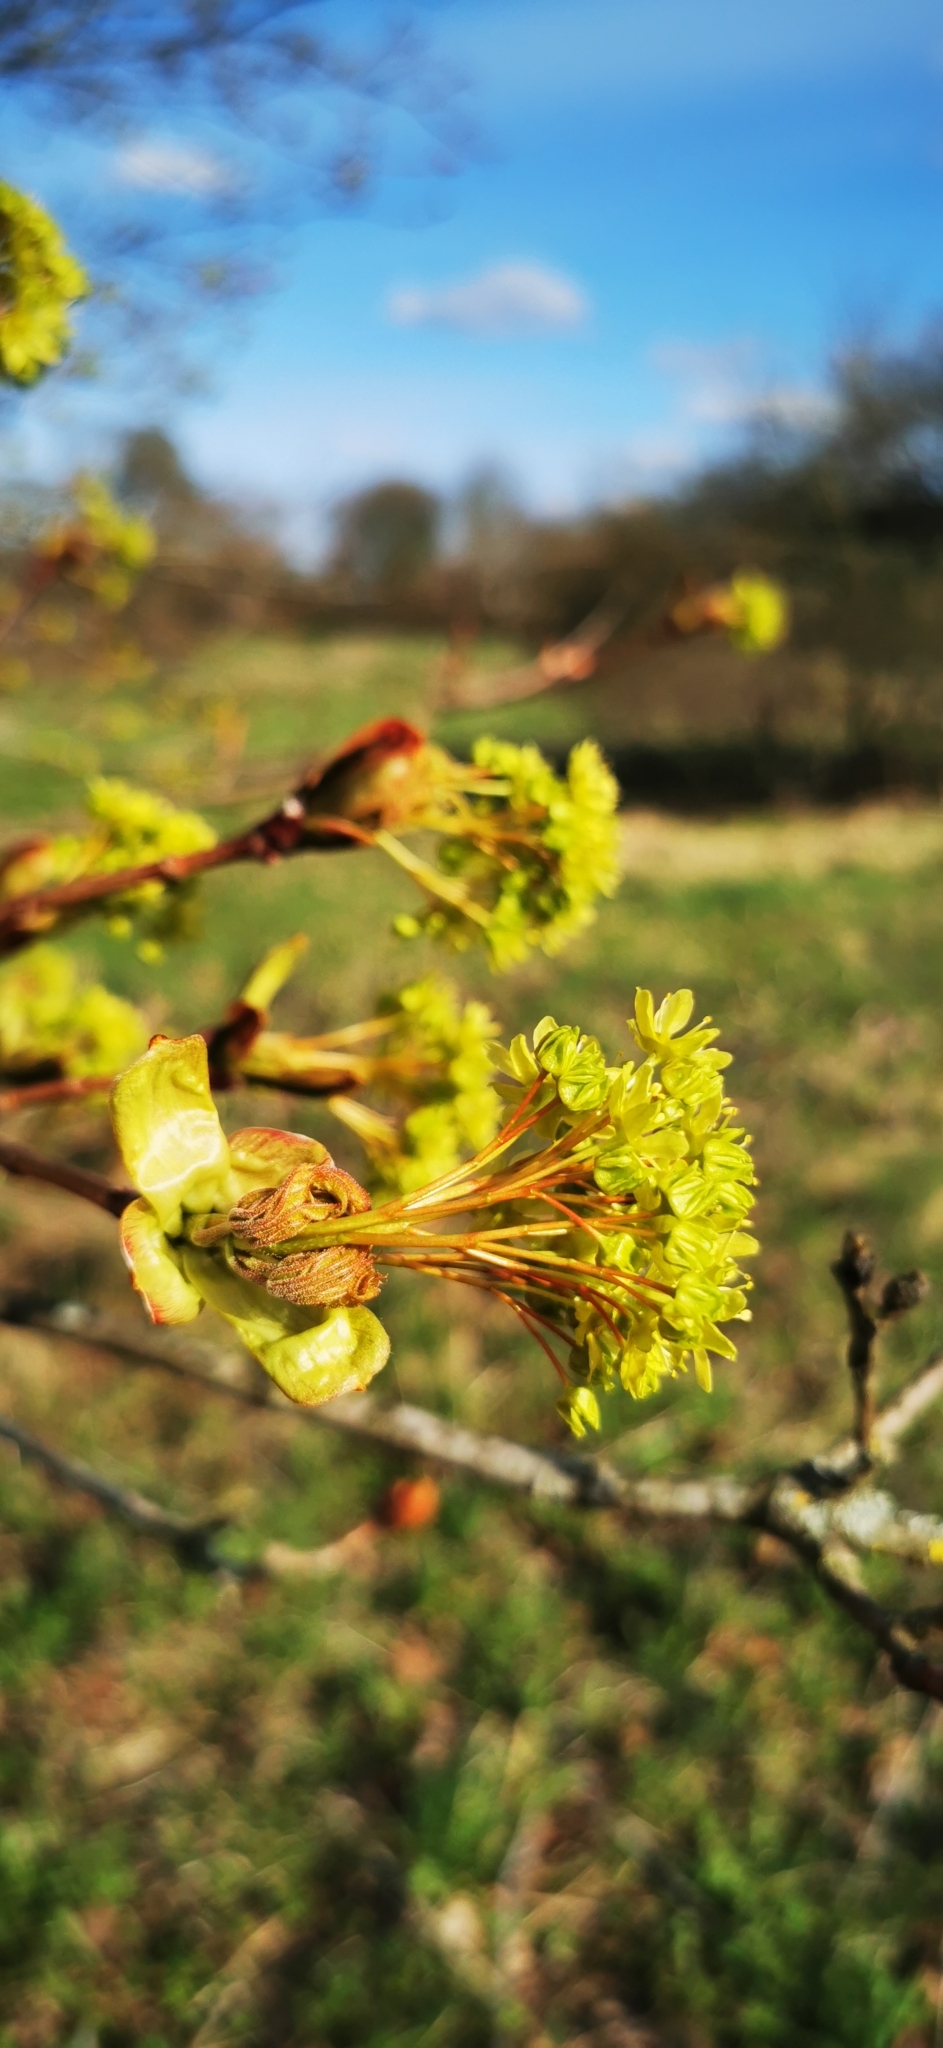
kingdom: Plantae
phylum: Tracheophyta
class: Magnoliopsida
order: Sapindales
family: Sapindaceae
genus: Acer
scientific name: Acer platanoides
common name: Norway maple
